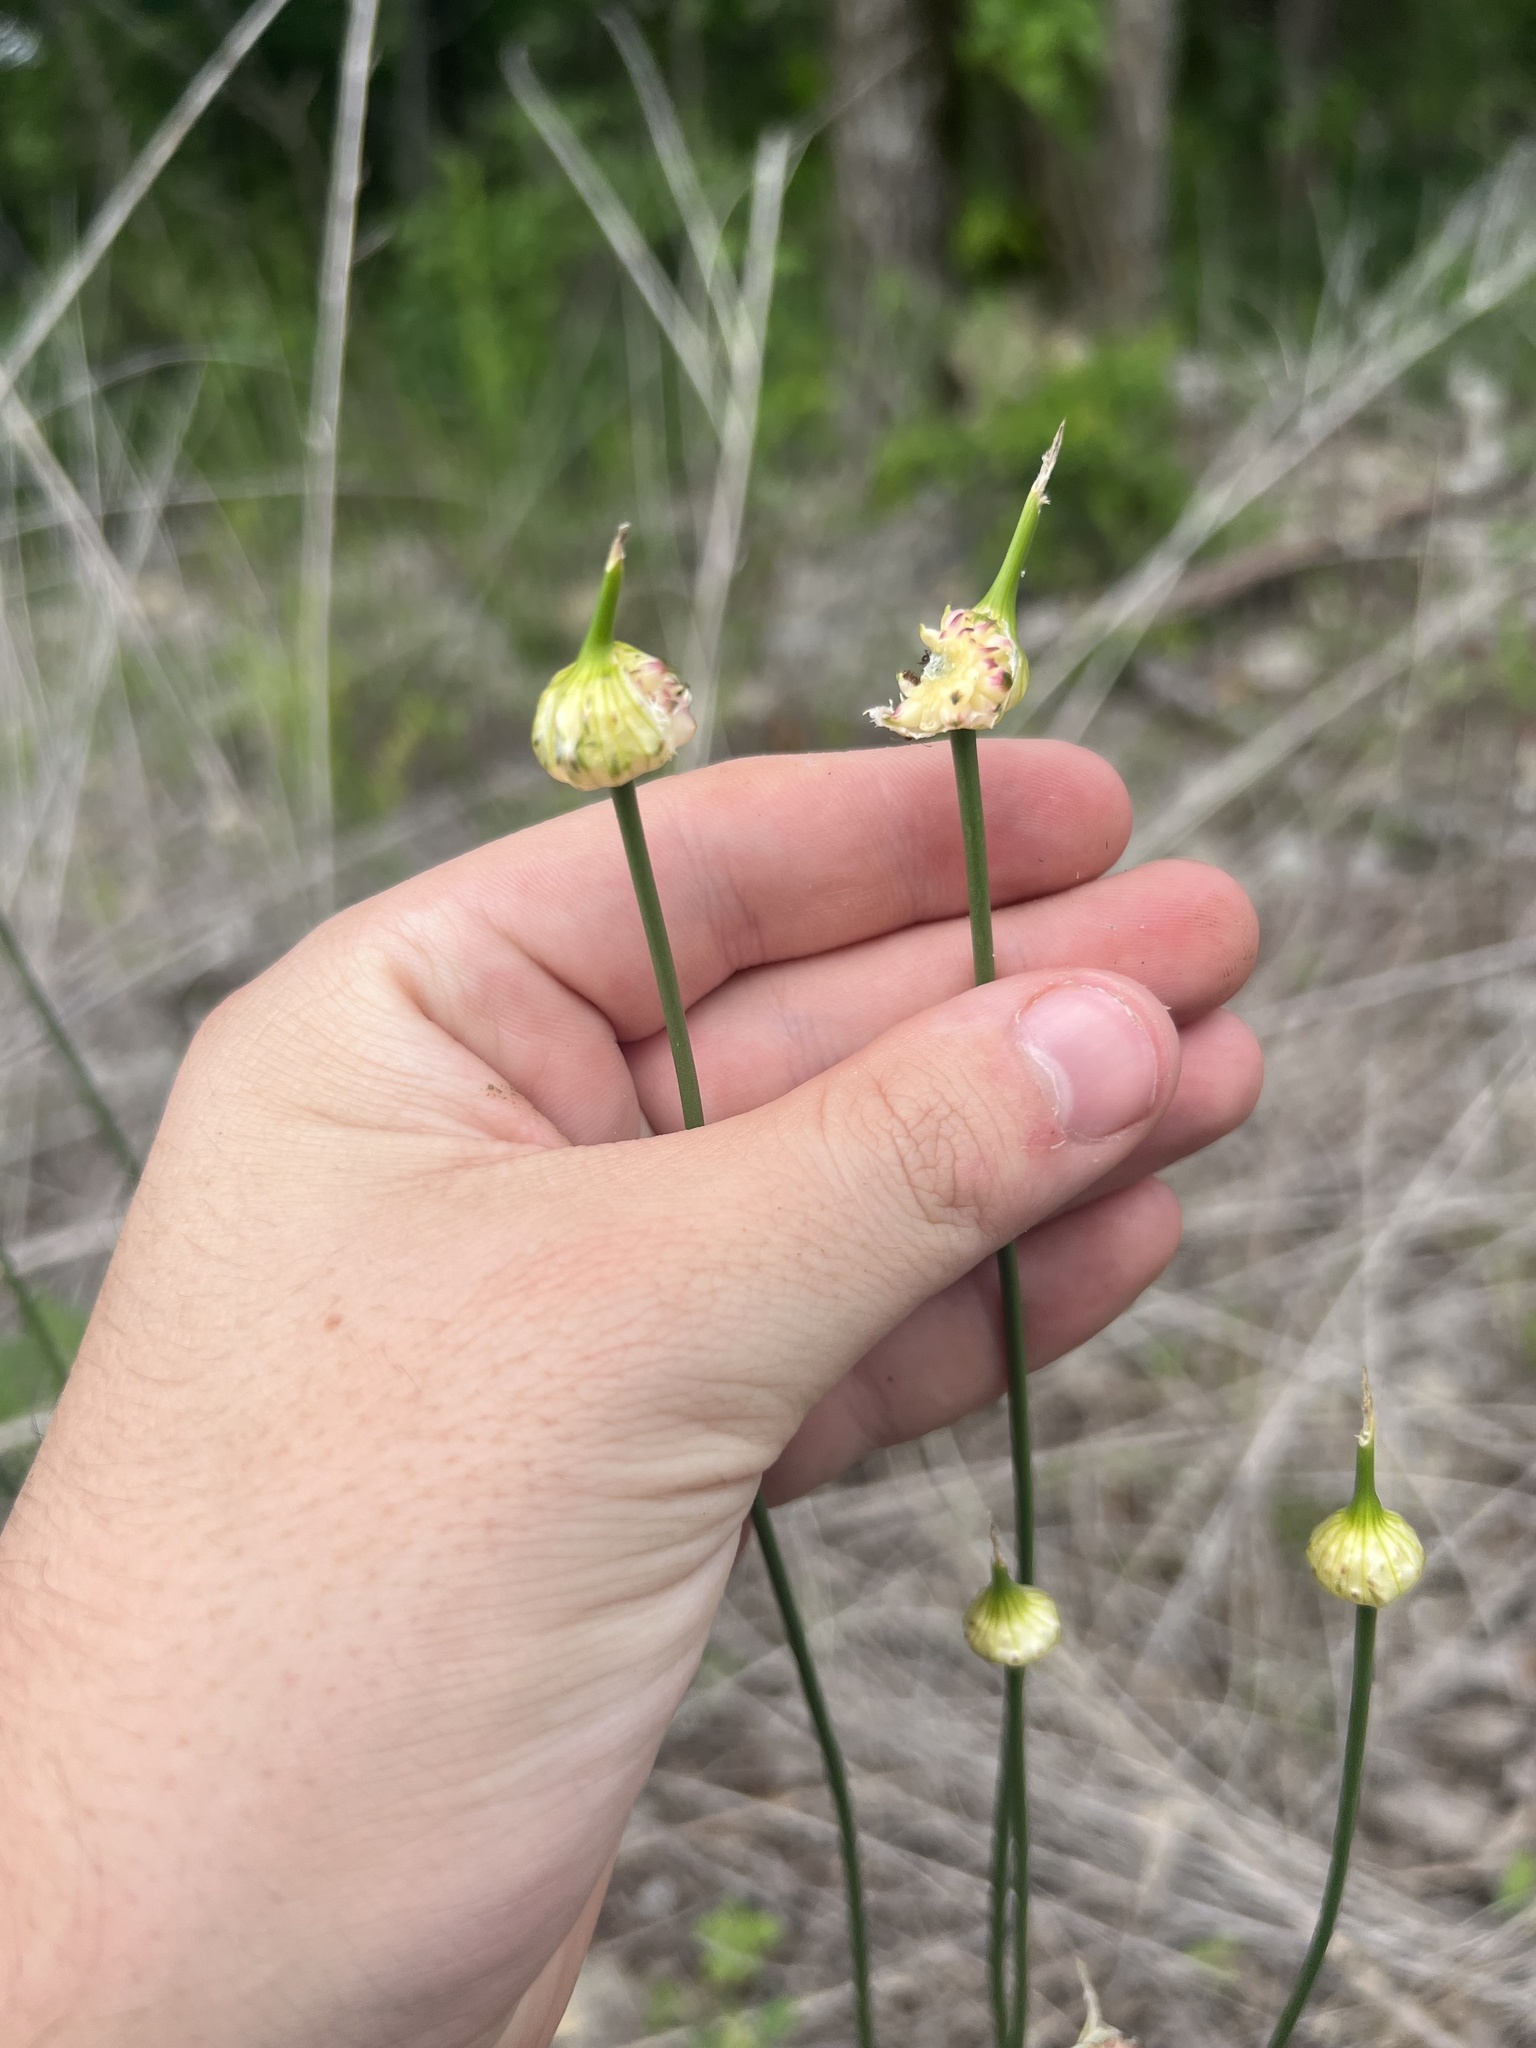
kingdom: Plantae
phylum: Tracheophyta
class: Liliopsida
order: Asparagales
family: Amaryllidaceae
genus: Allium
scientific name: Allium vineale
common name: Crow garlic
